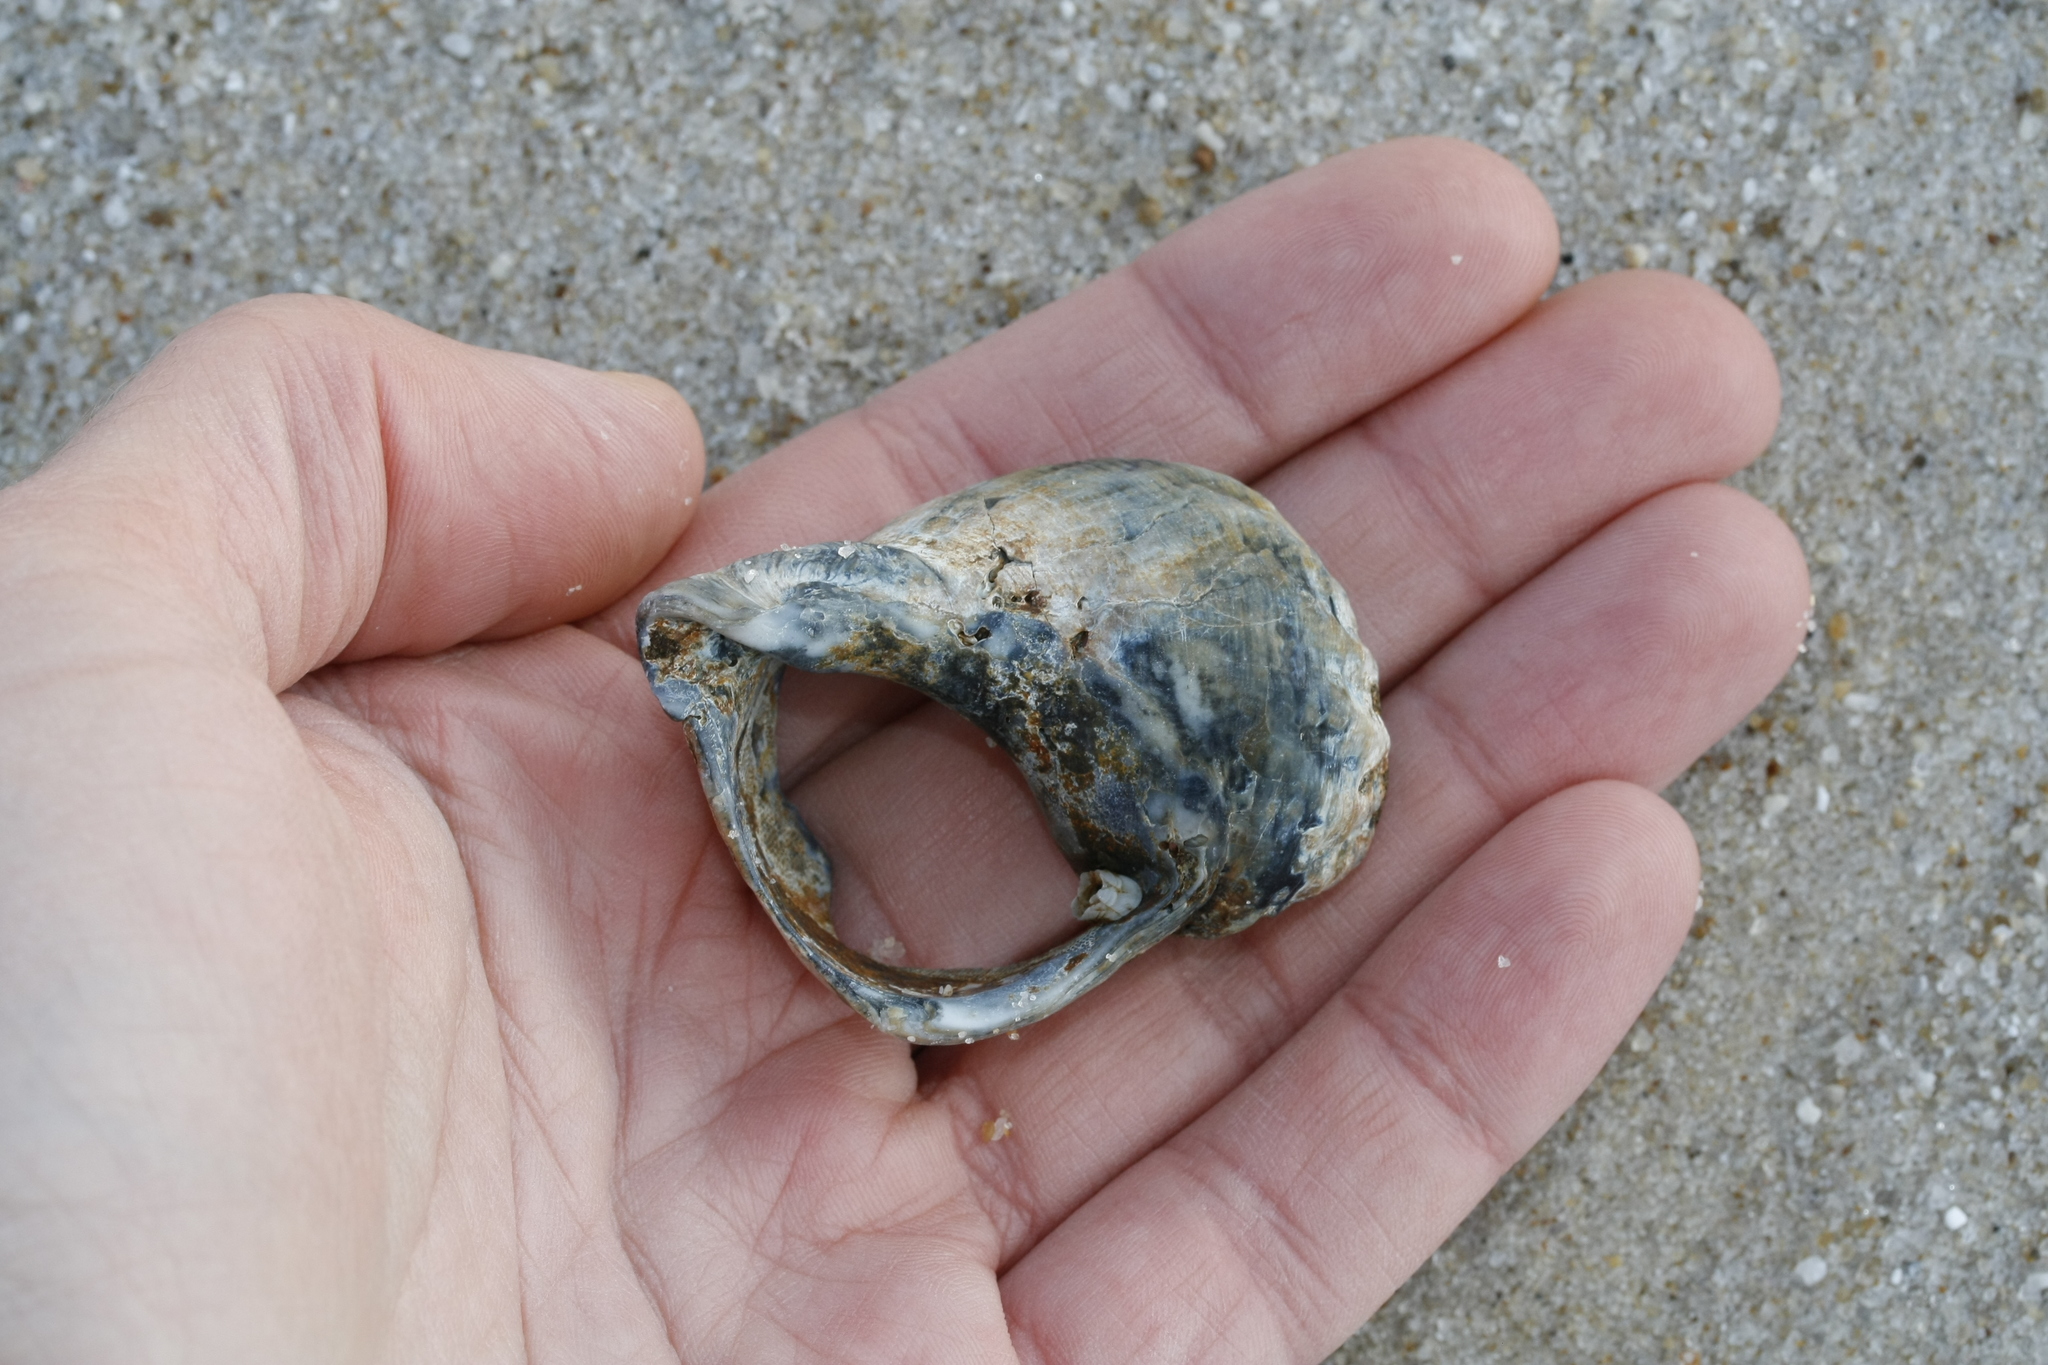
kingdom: Animalia
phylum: Mollusca
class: Gastropoda
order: Neogastropoda
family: Buccinidae
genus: Buccinum
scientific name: Buccinum undatum
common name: Common whelk
